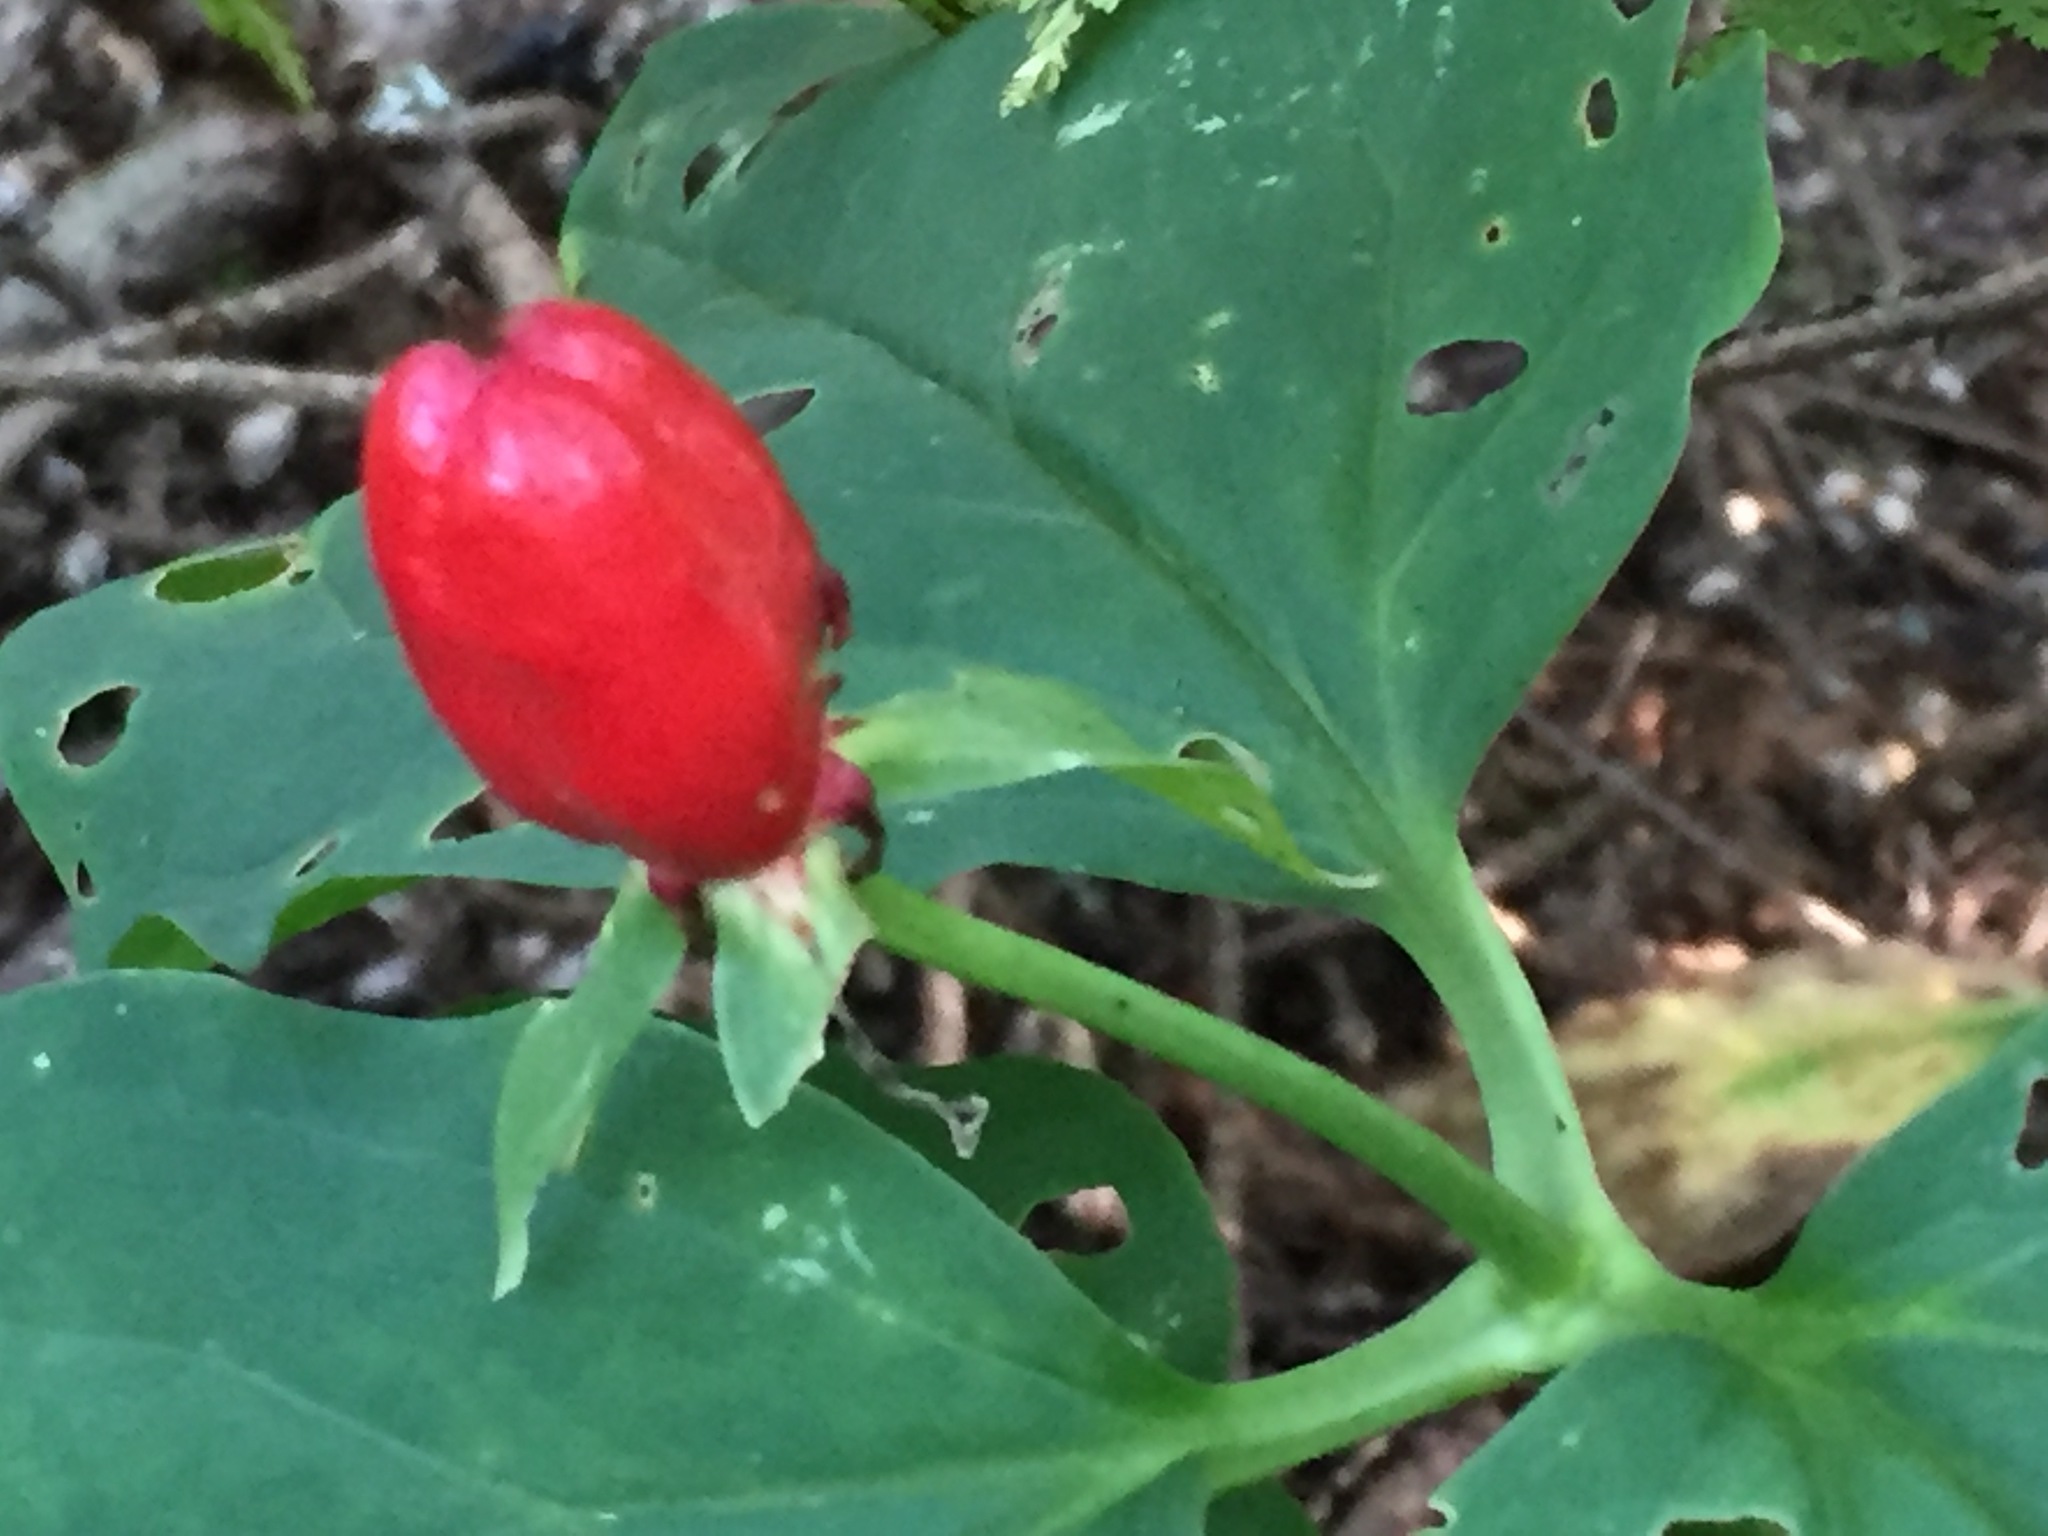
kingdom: Plantae
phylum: Tracheophyta
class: Liliopsida
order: Liliales
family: Melanthiaceae
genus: Trillium
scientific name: Trillium undulatum
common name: Paint trillium
